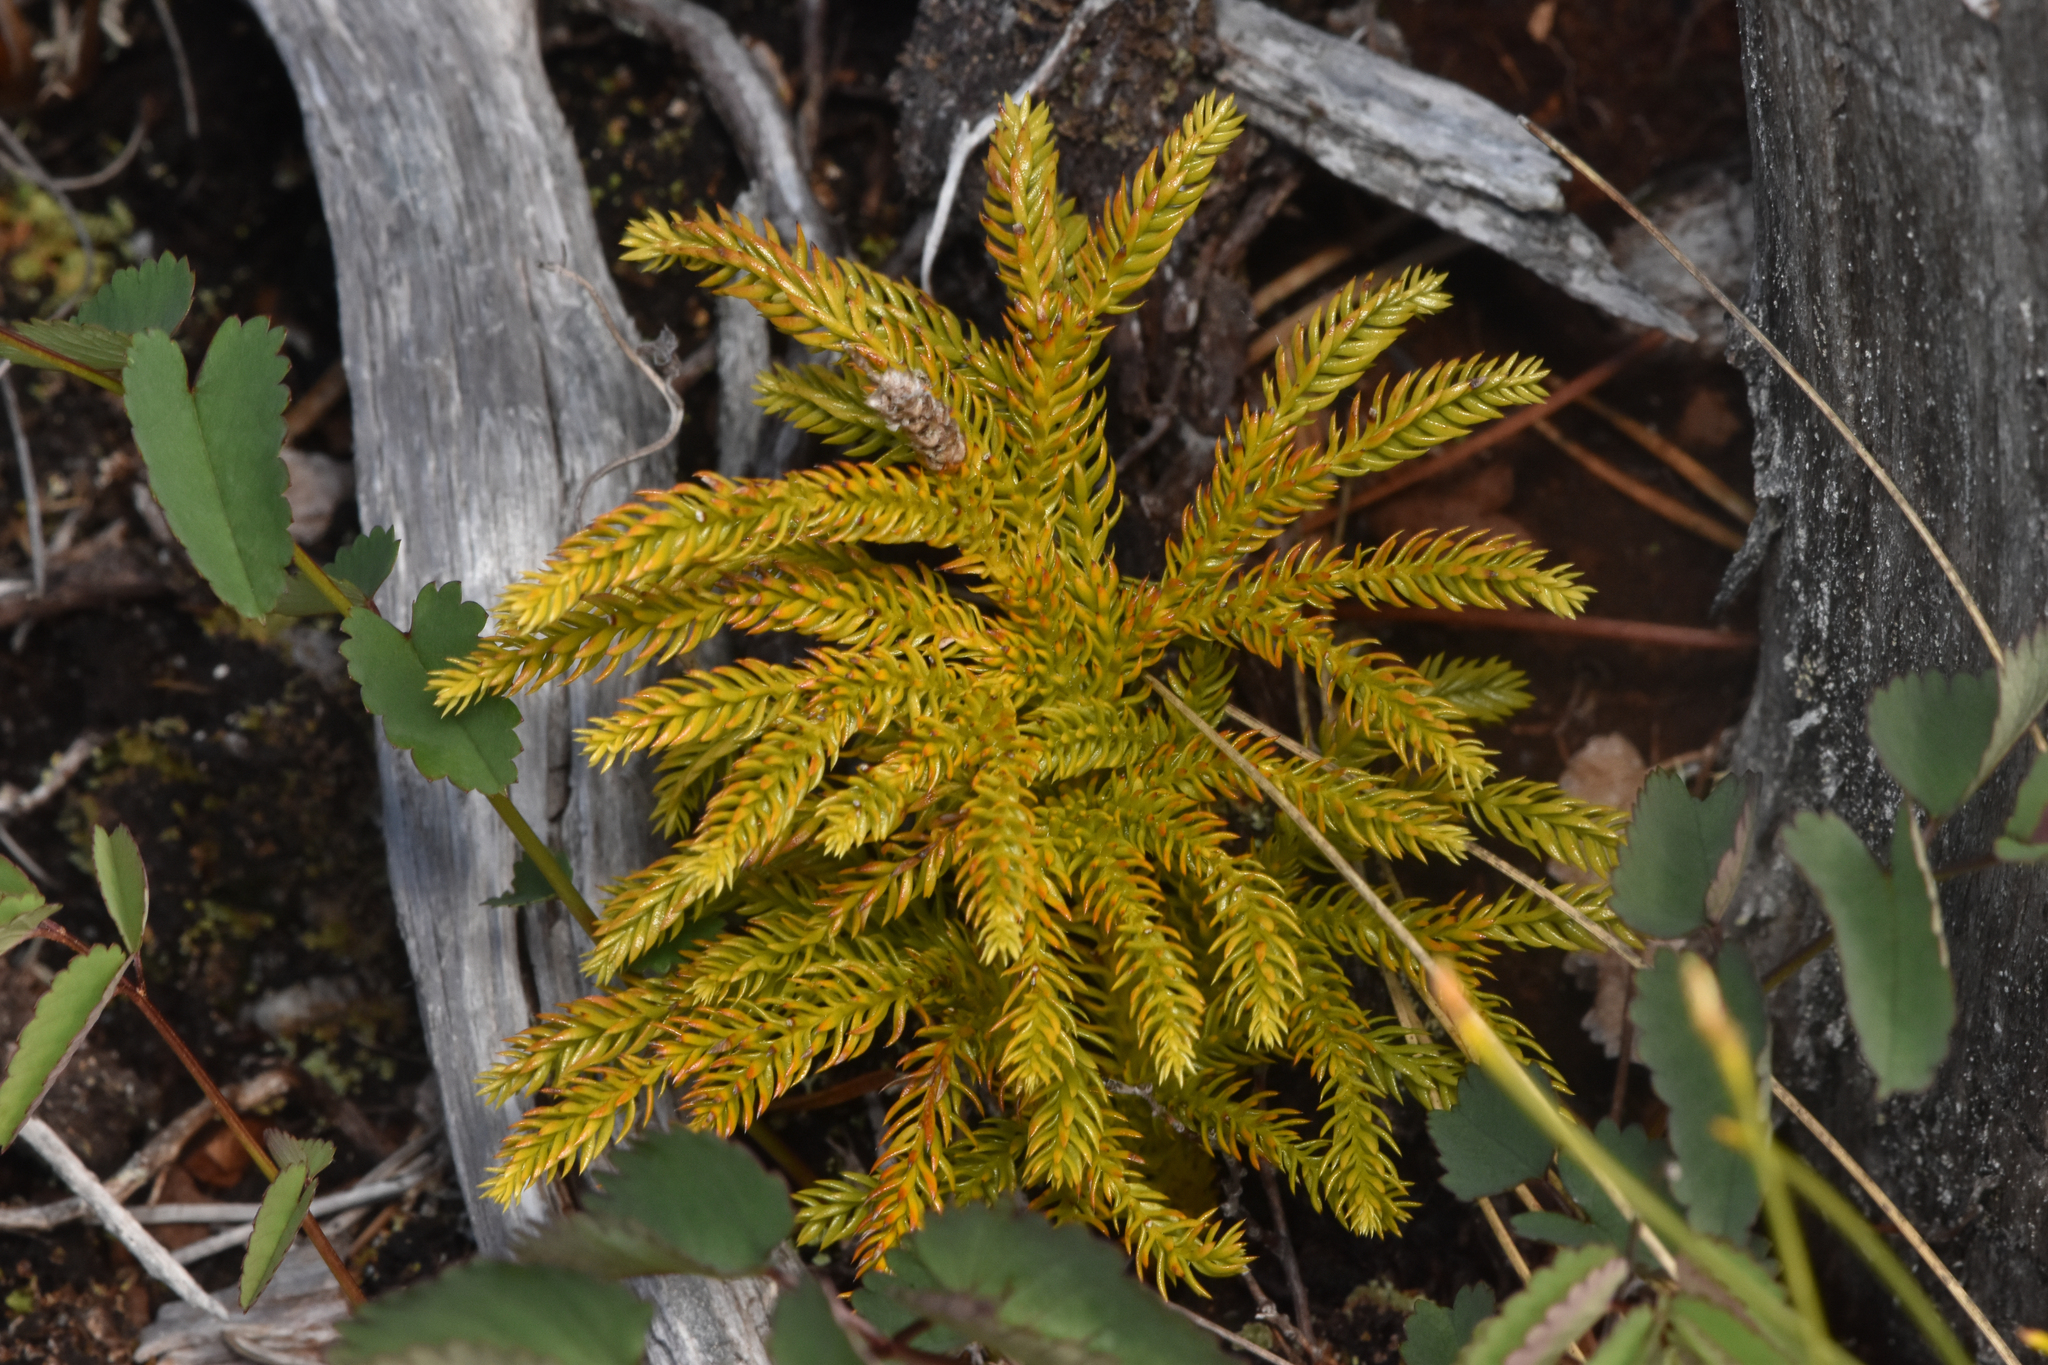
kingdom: Plantae
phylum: Tracheophyta
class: Lycopodiopsida
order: Lycopodiales
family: Lycopodiaceae
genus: Dendrolycopodium
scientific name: Dendrolycopodium dendroideum
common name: Northern tree-clubmoss
